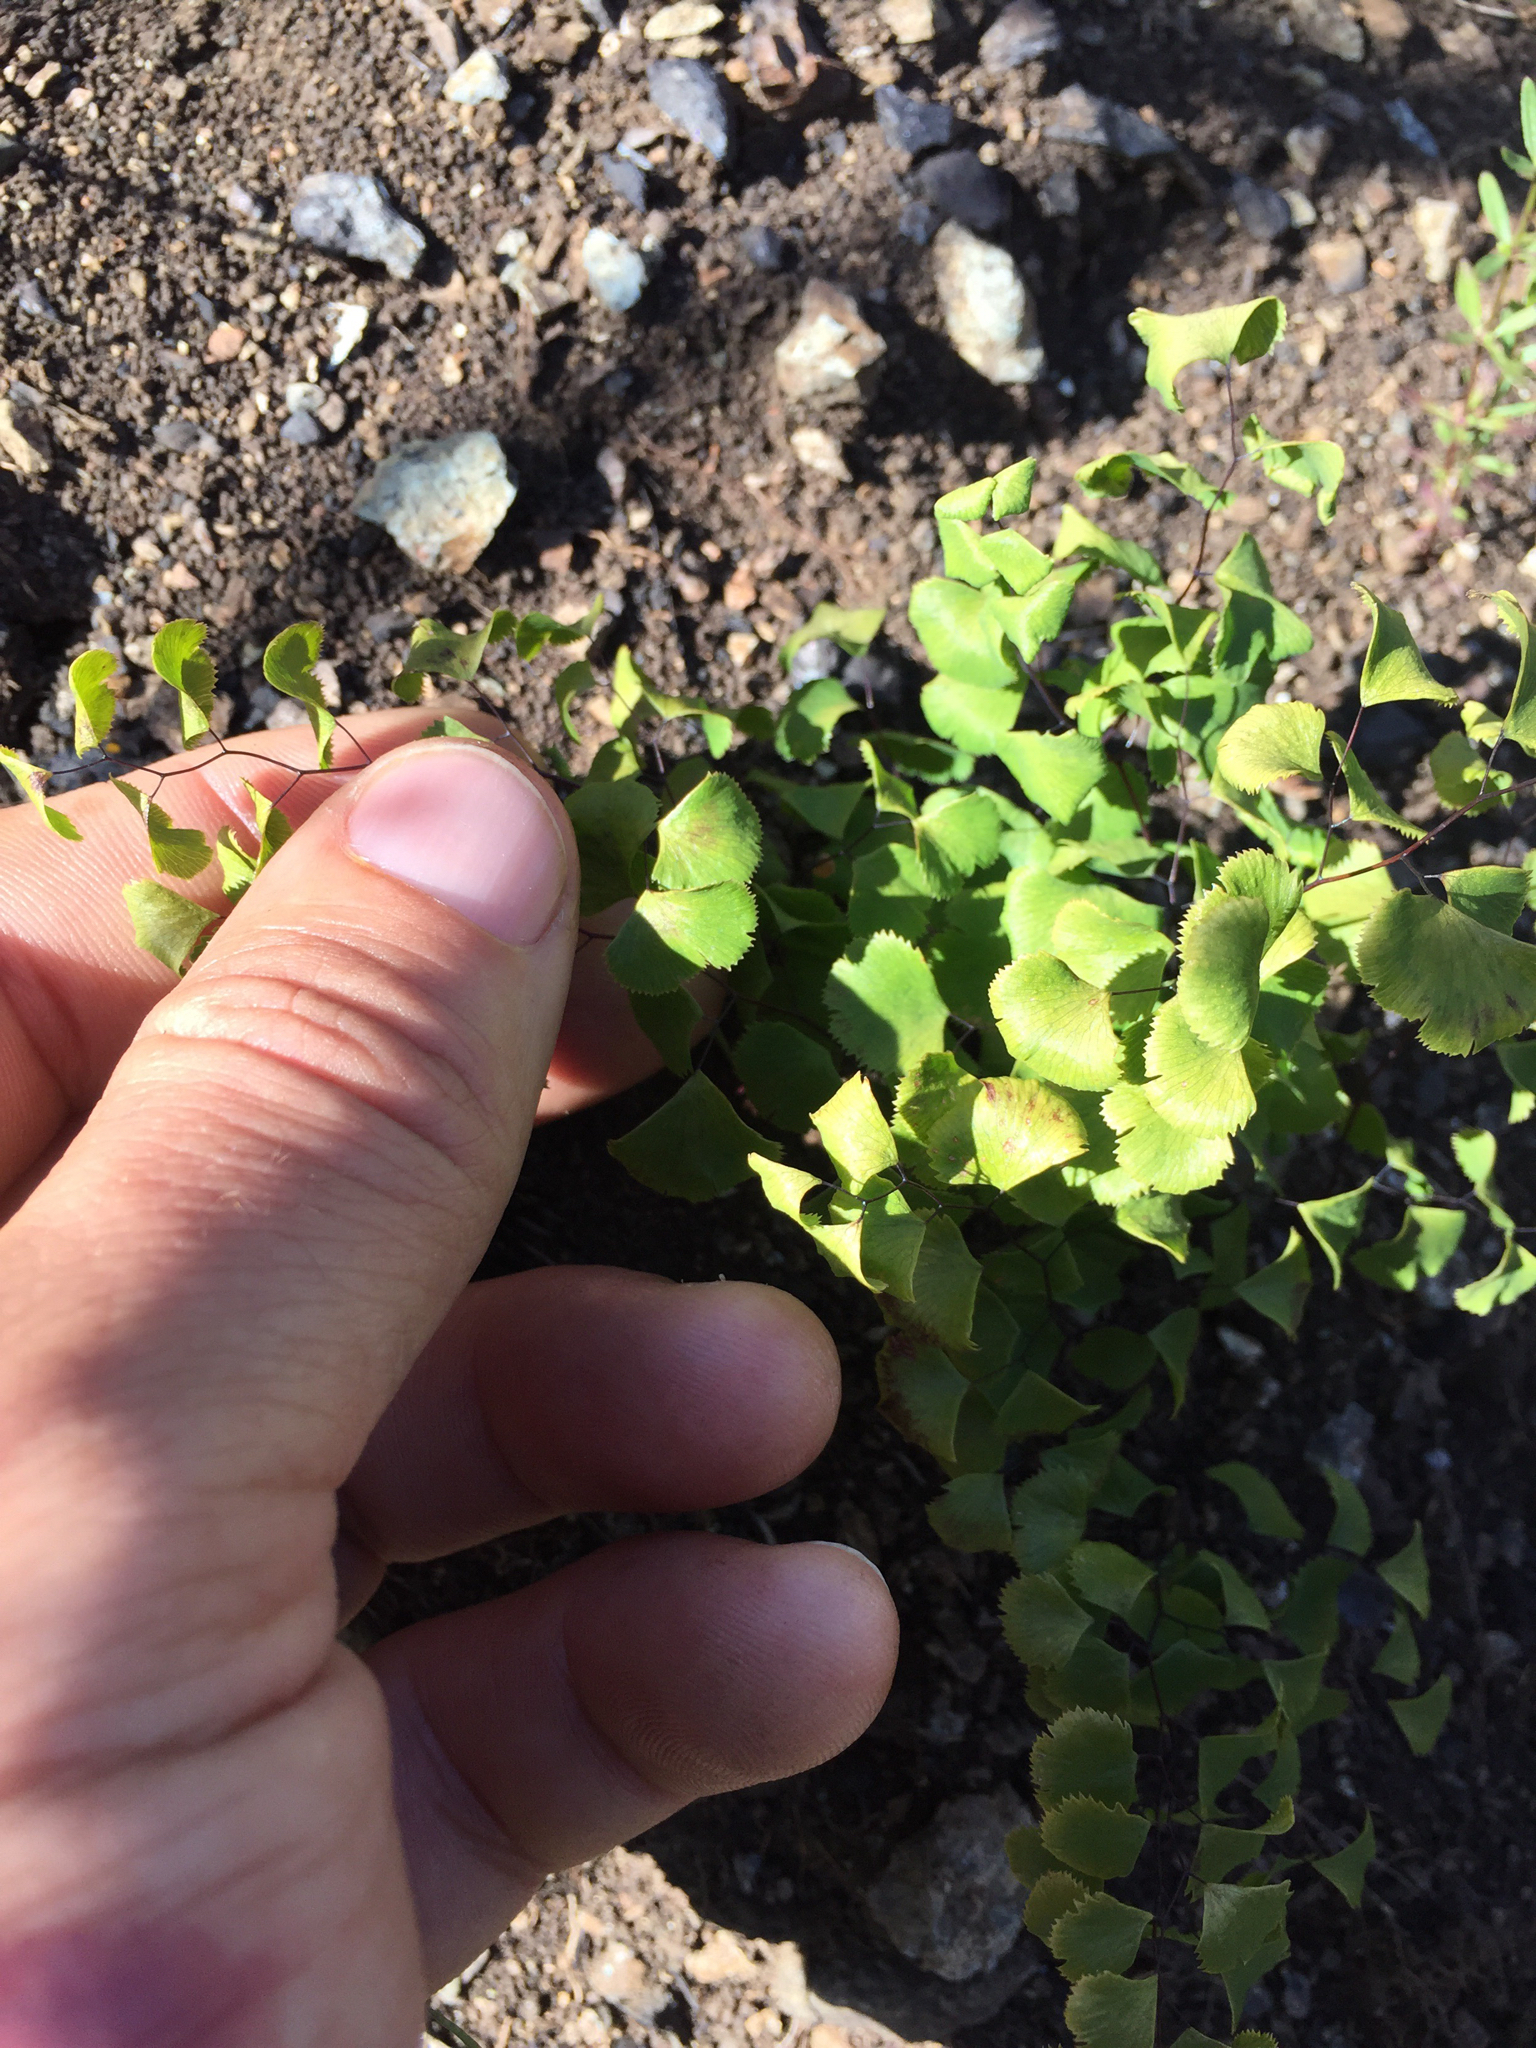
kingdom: Plantae
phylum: Tracheophyta
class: Polypodiopsida
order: Polypodiales
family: Pteridaceae
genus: Adiantum
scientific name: Adiantum jordanii
